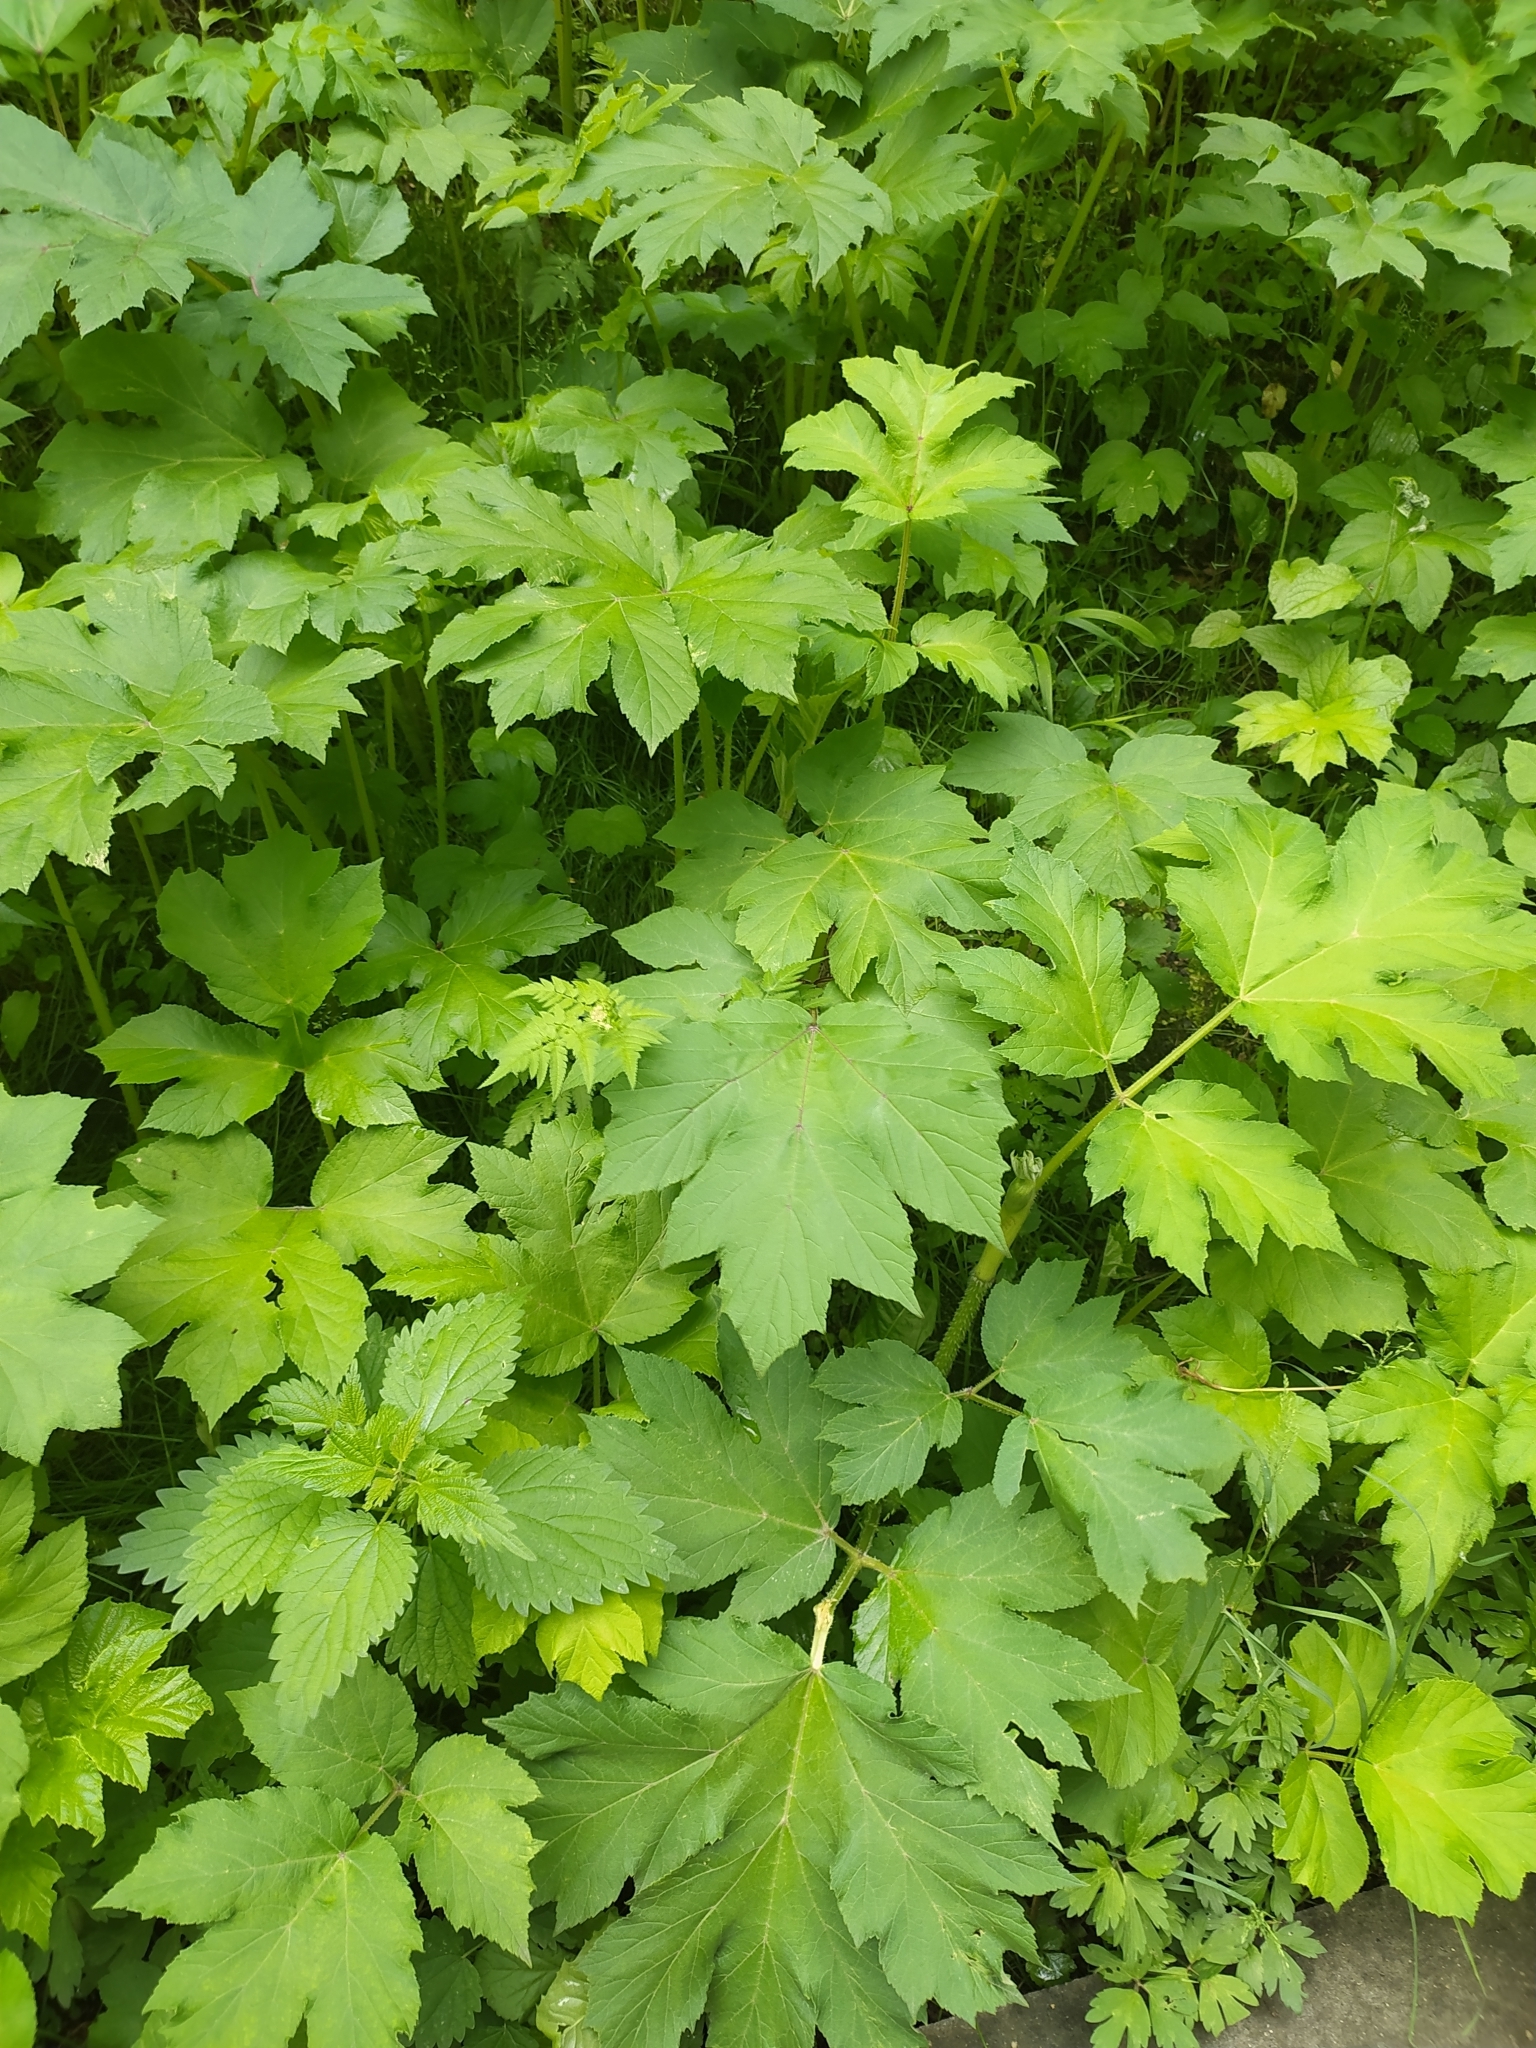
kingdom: Plantae
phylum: Tracheophyta
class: Magnoliopsida
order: Apiales
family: Apiaceae
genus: Heracleum
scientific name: Heracleum asperum
